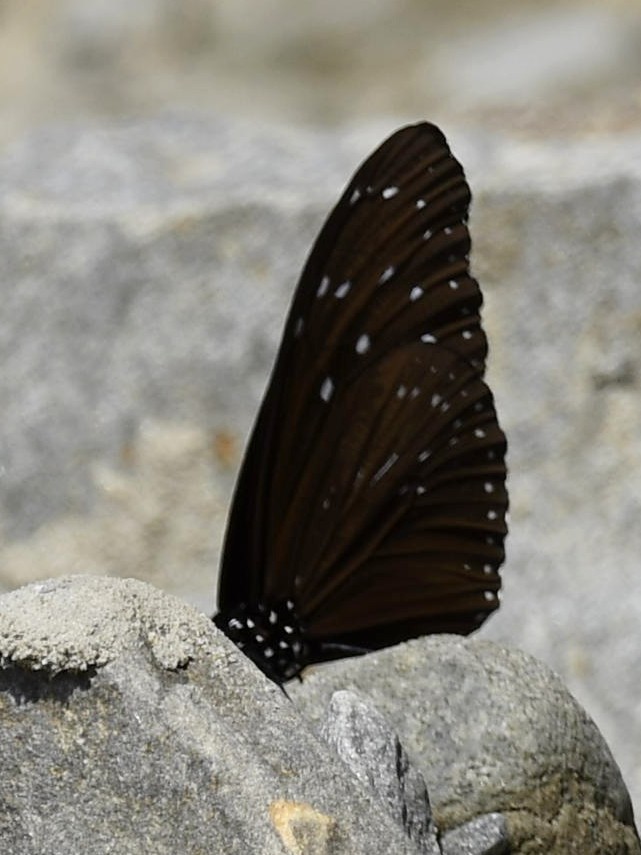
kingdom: Animalia
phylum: Arthropoda
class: Insecta
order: Lepidoptera
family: Nymphalidae
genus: Euploea
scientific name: Euploea mulciber
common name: Striped blue crow butterfly
